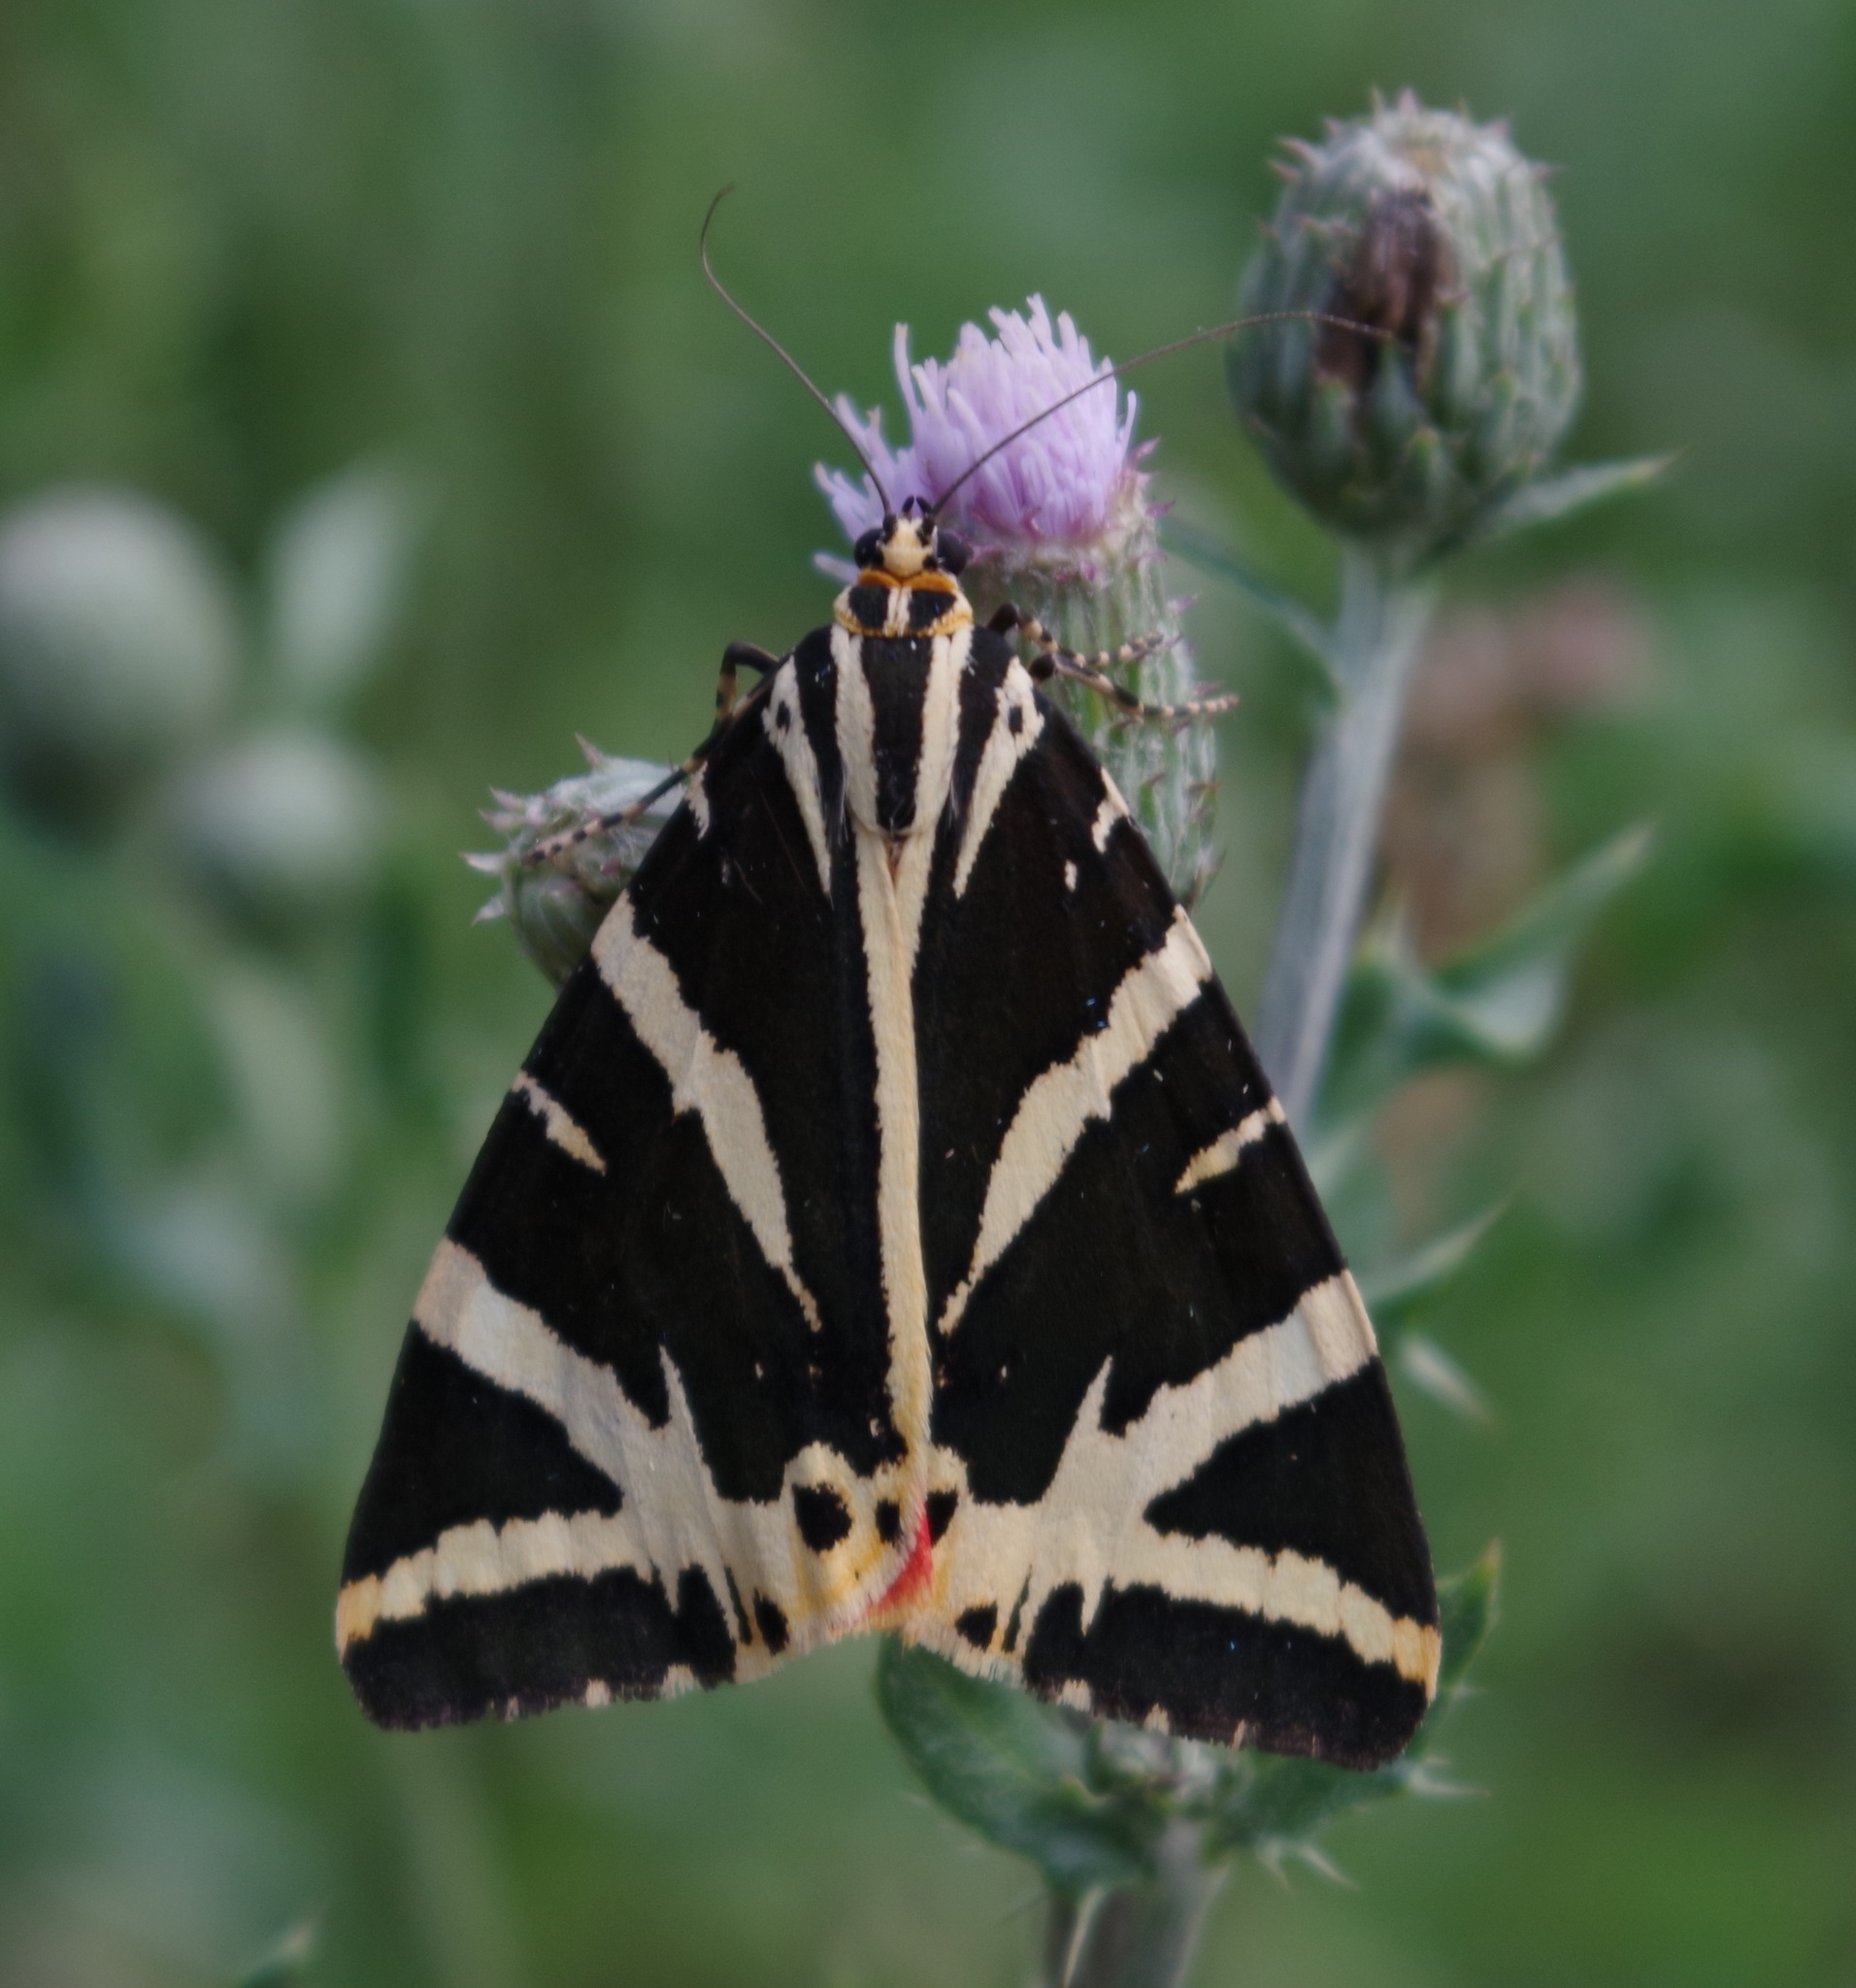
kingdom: Animalia
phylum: Arthropoda
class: Insecta
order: Lepidoptera
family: Erebidae
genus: Euplagia
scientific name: Euplagia quadripunctaria
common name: Jersey tiger
